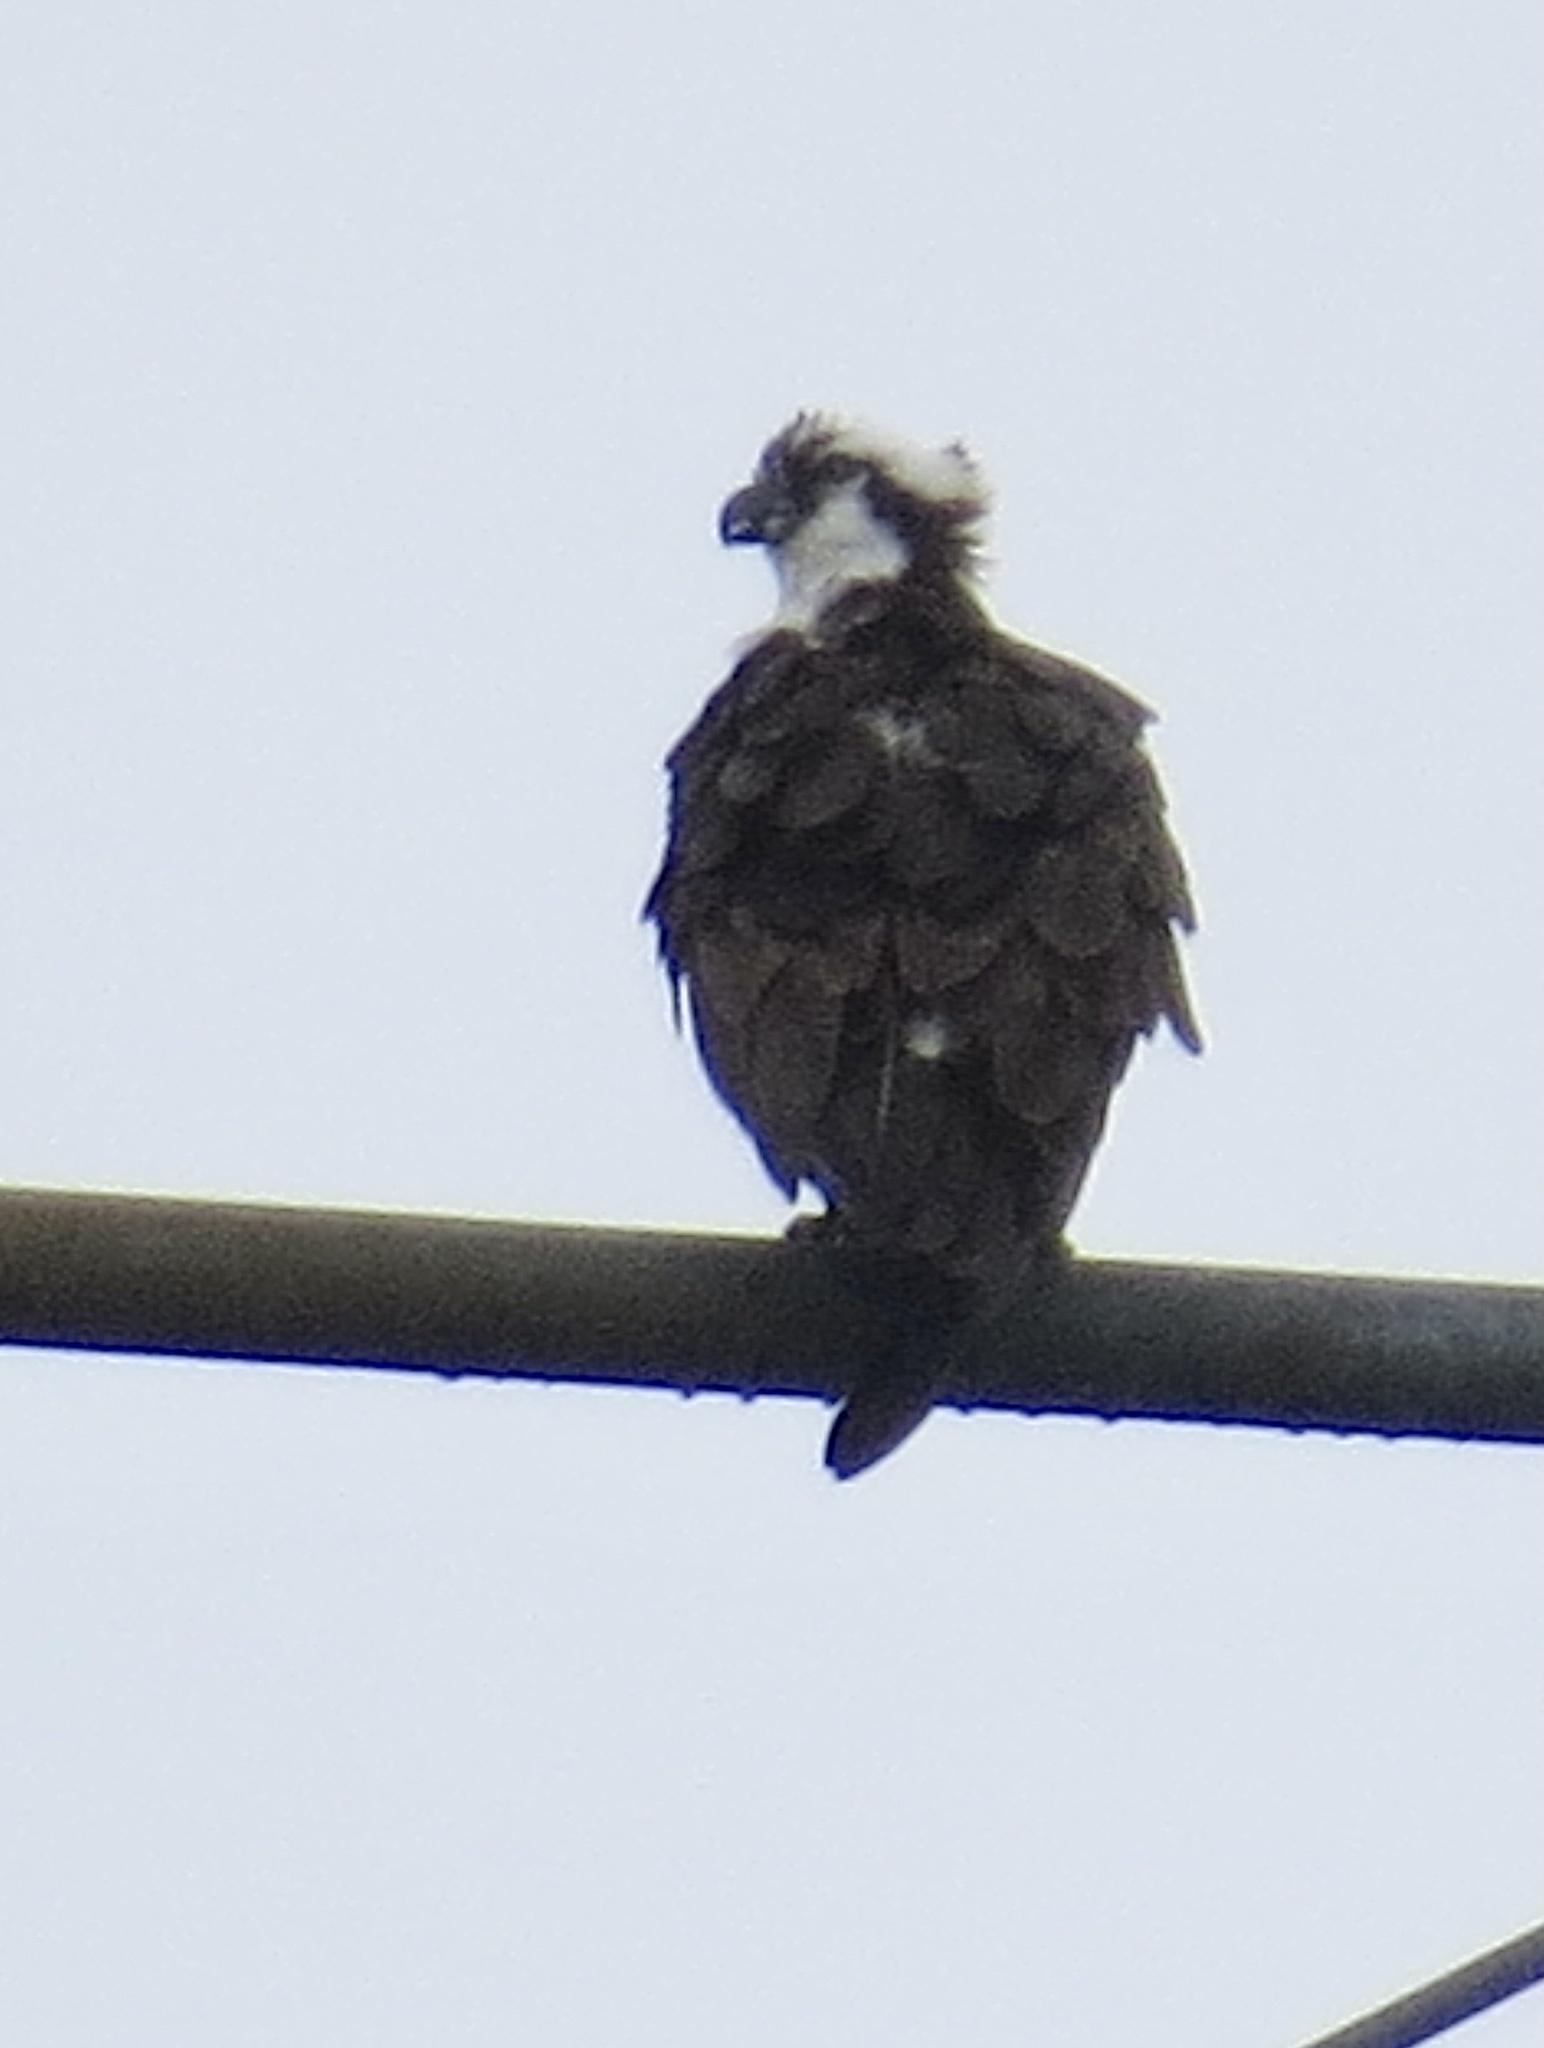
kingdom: Animalia
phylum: Chordata
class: Aves
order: Accipitriformes
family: Pandionidae
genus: Pandion
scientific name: Pandion haliaetus
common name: Osprey
